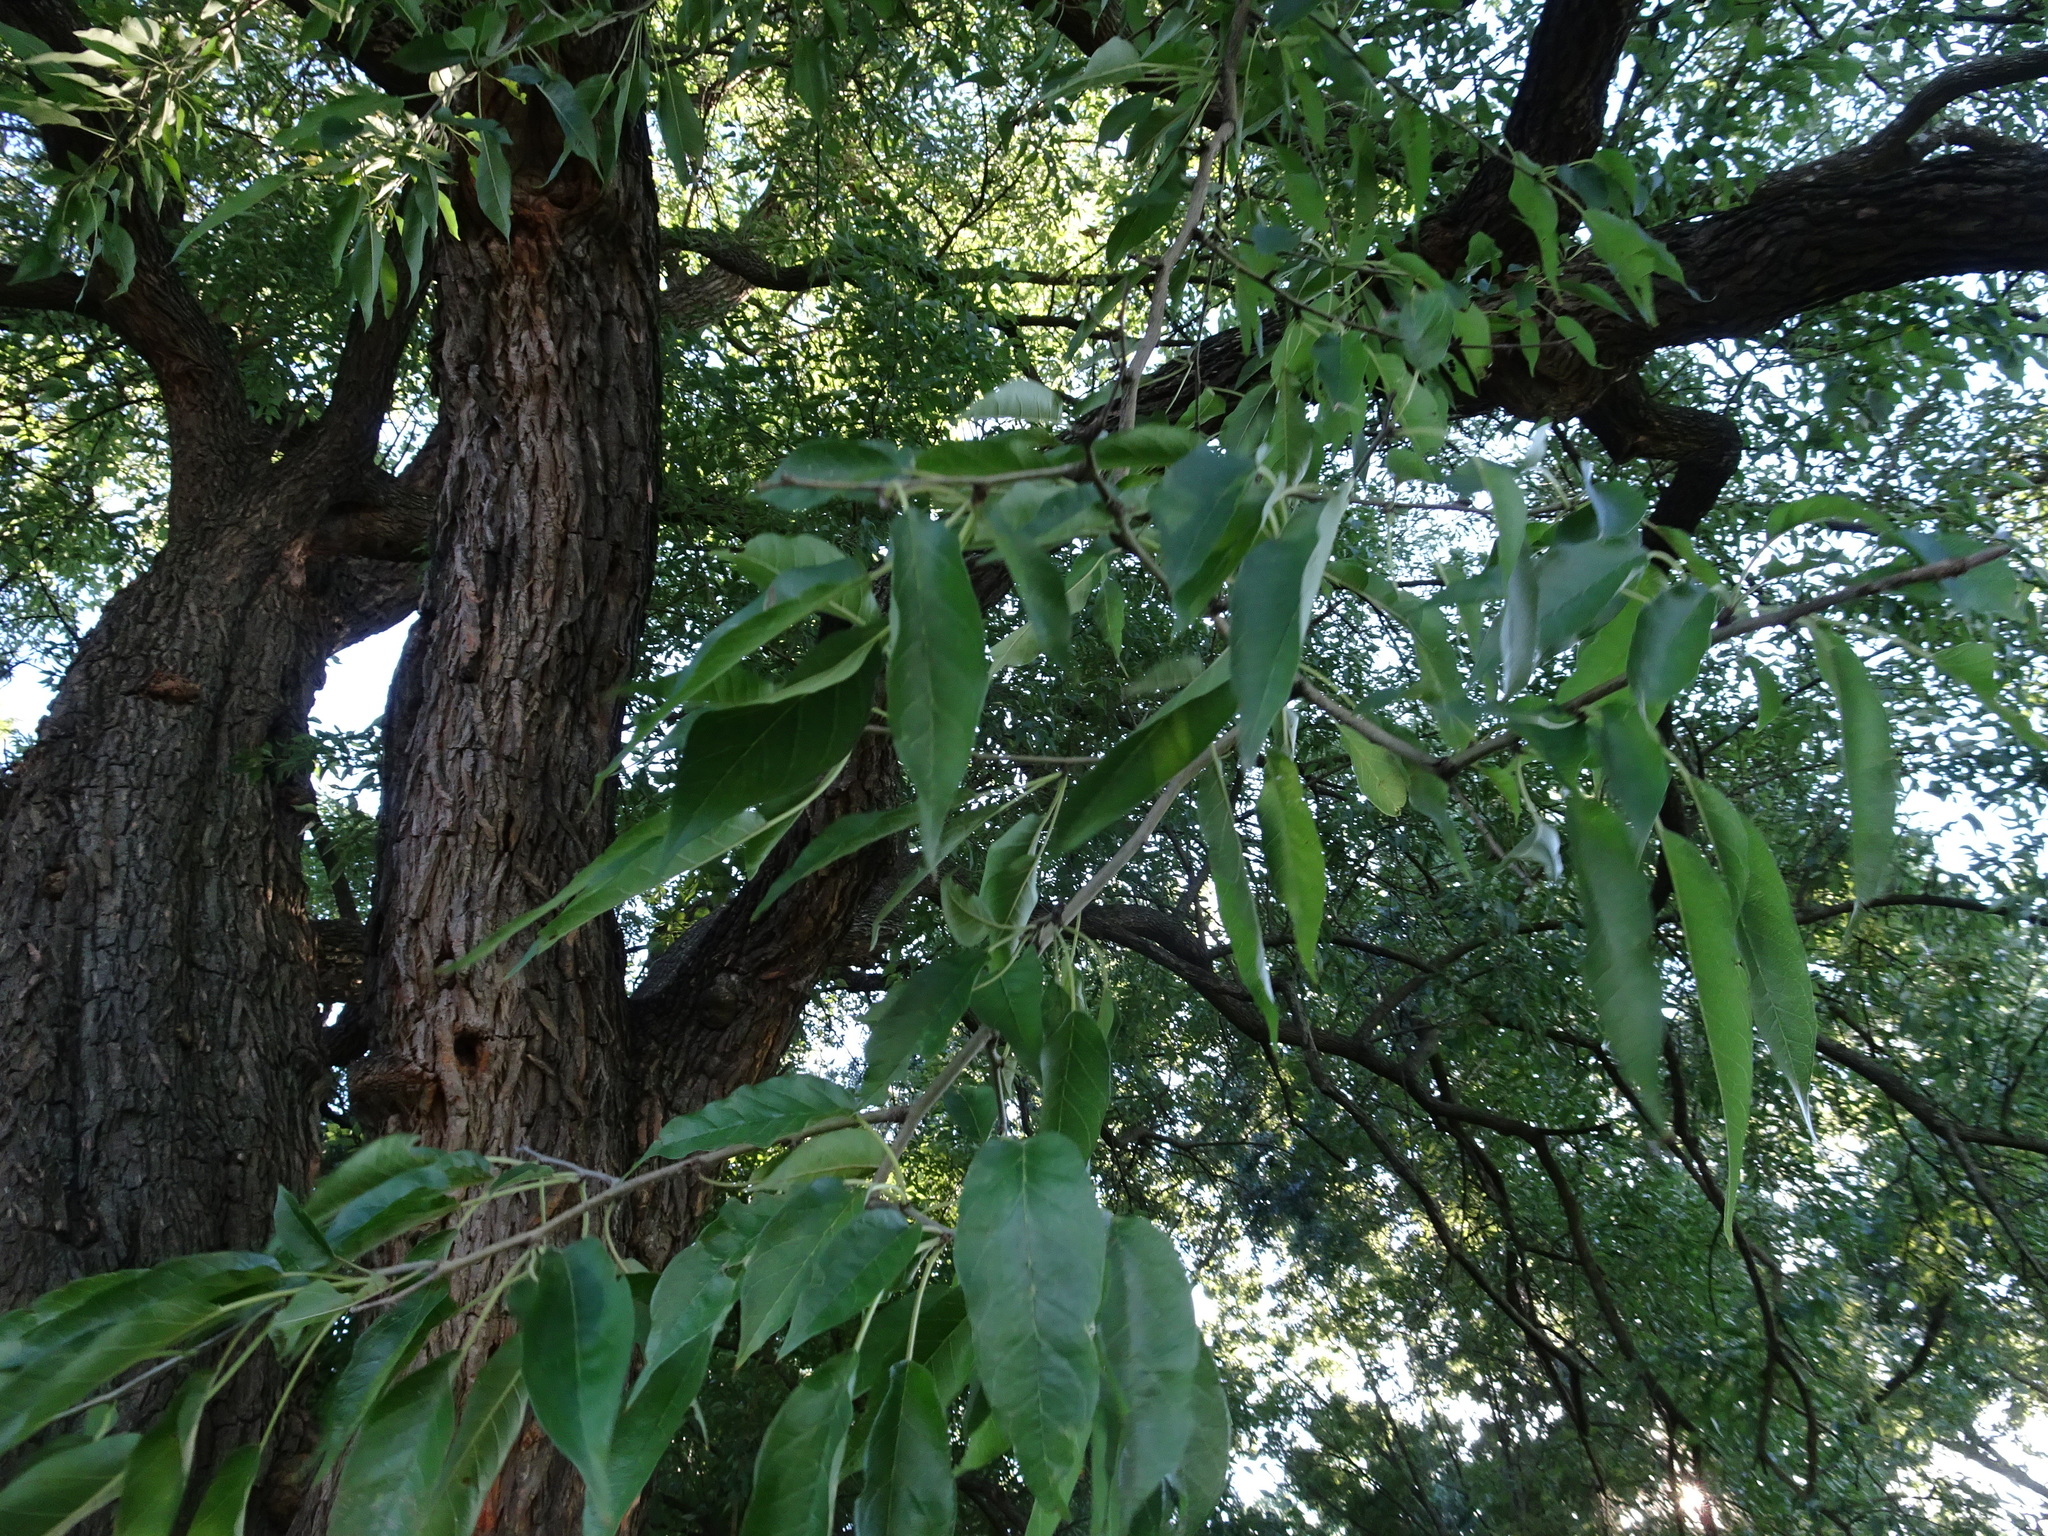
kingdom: Plantae
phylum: Tracheophyta
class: Magnoliopsida
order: Rosales
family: Moraceae
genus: Maclura
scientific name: Maclura pomifera
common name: Osage-orange
